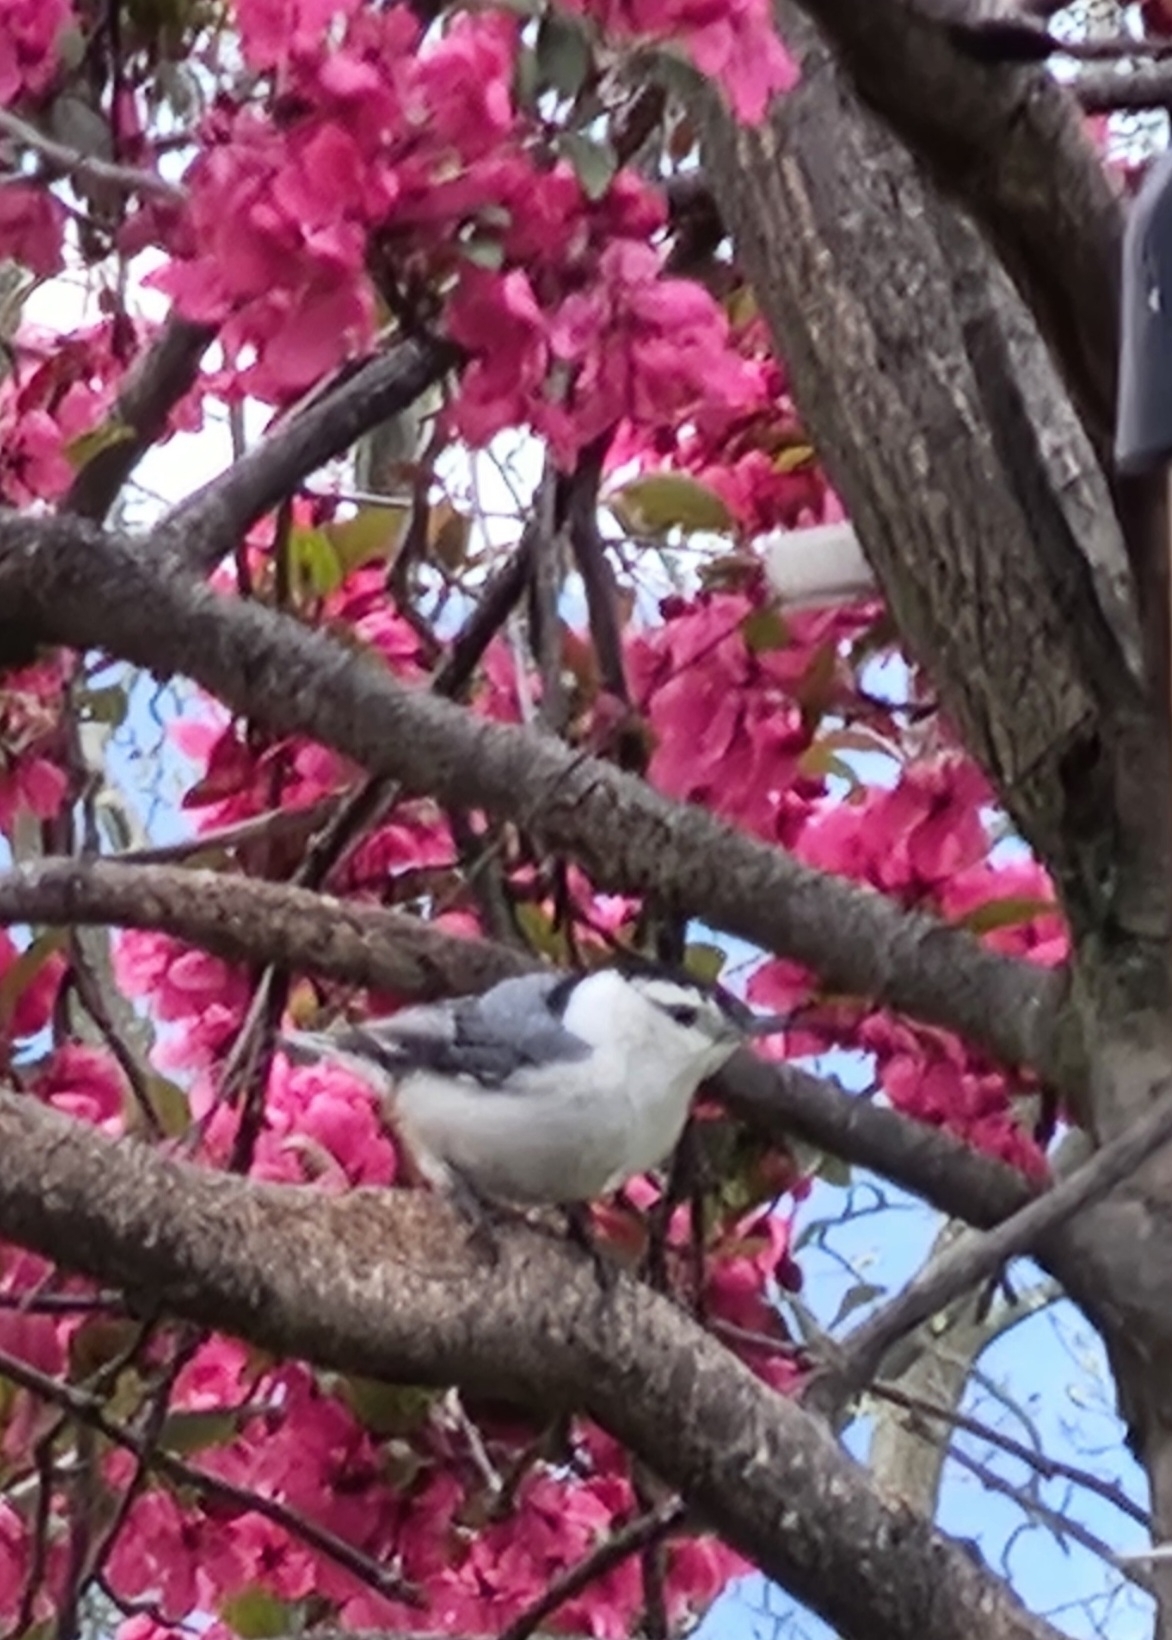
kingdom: Animalia
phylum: Chordata
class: Aves
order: Passeriformes
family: Sittidae
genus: Sitta
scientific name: Sitta carolinensis
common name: White-breasted nuthatch
